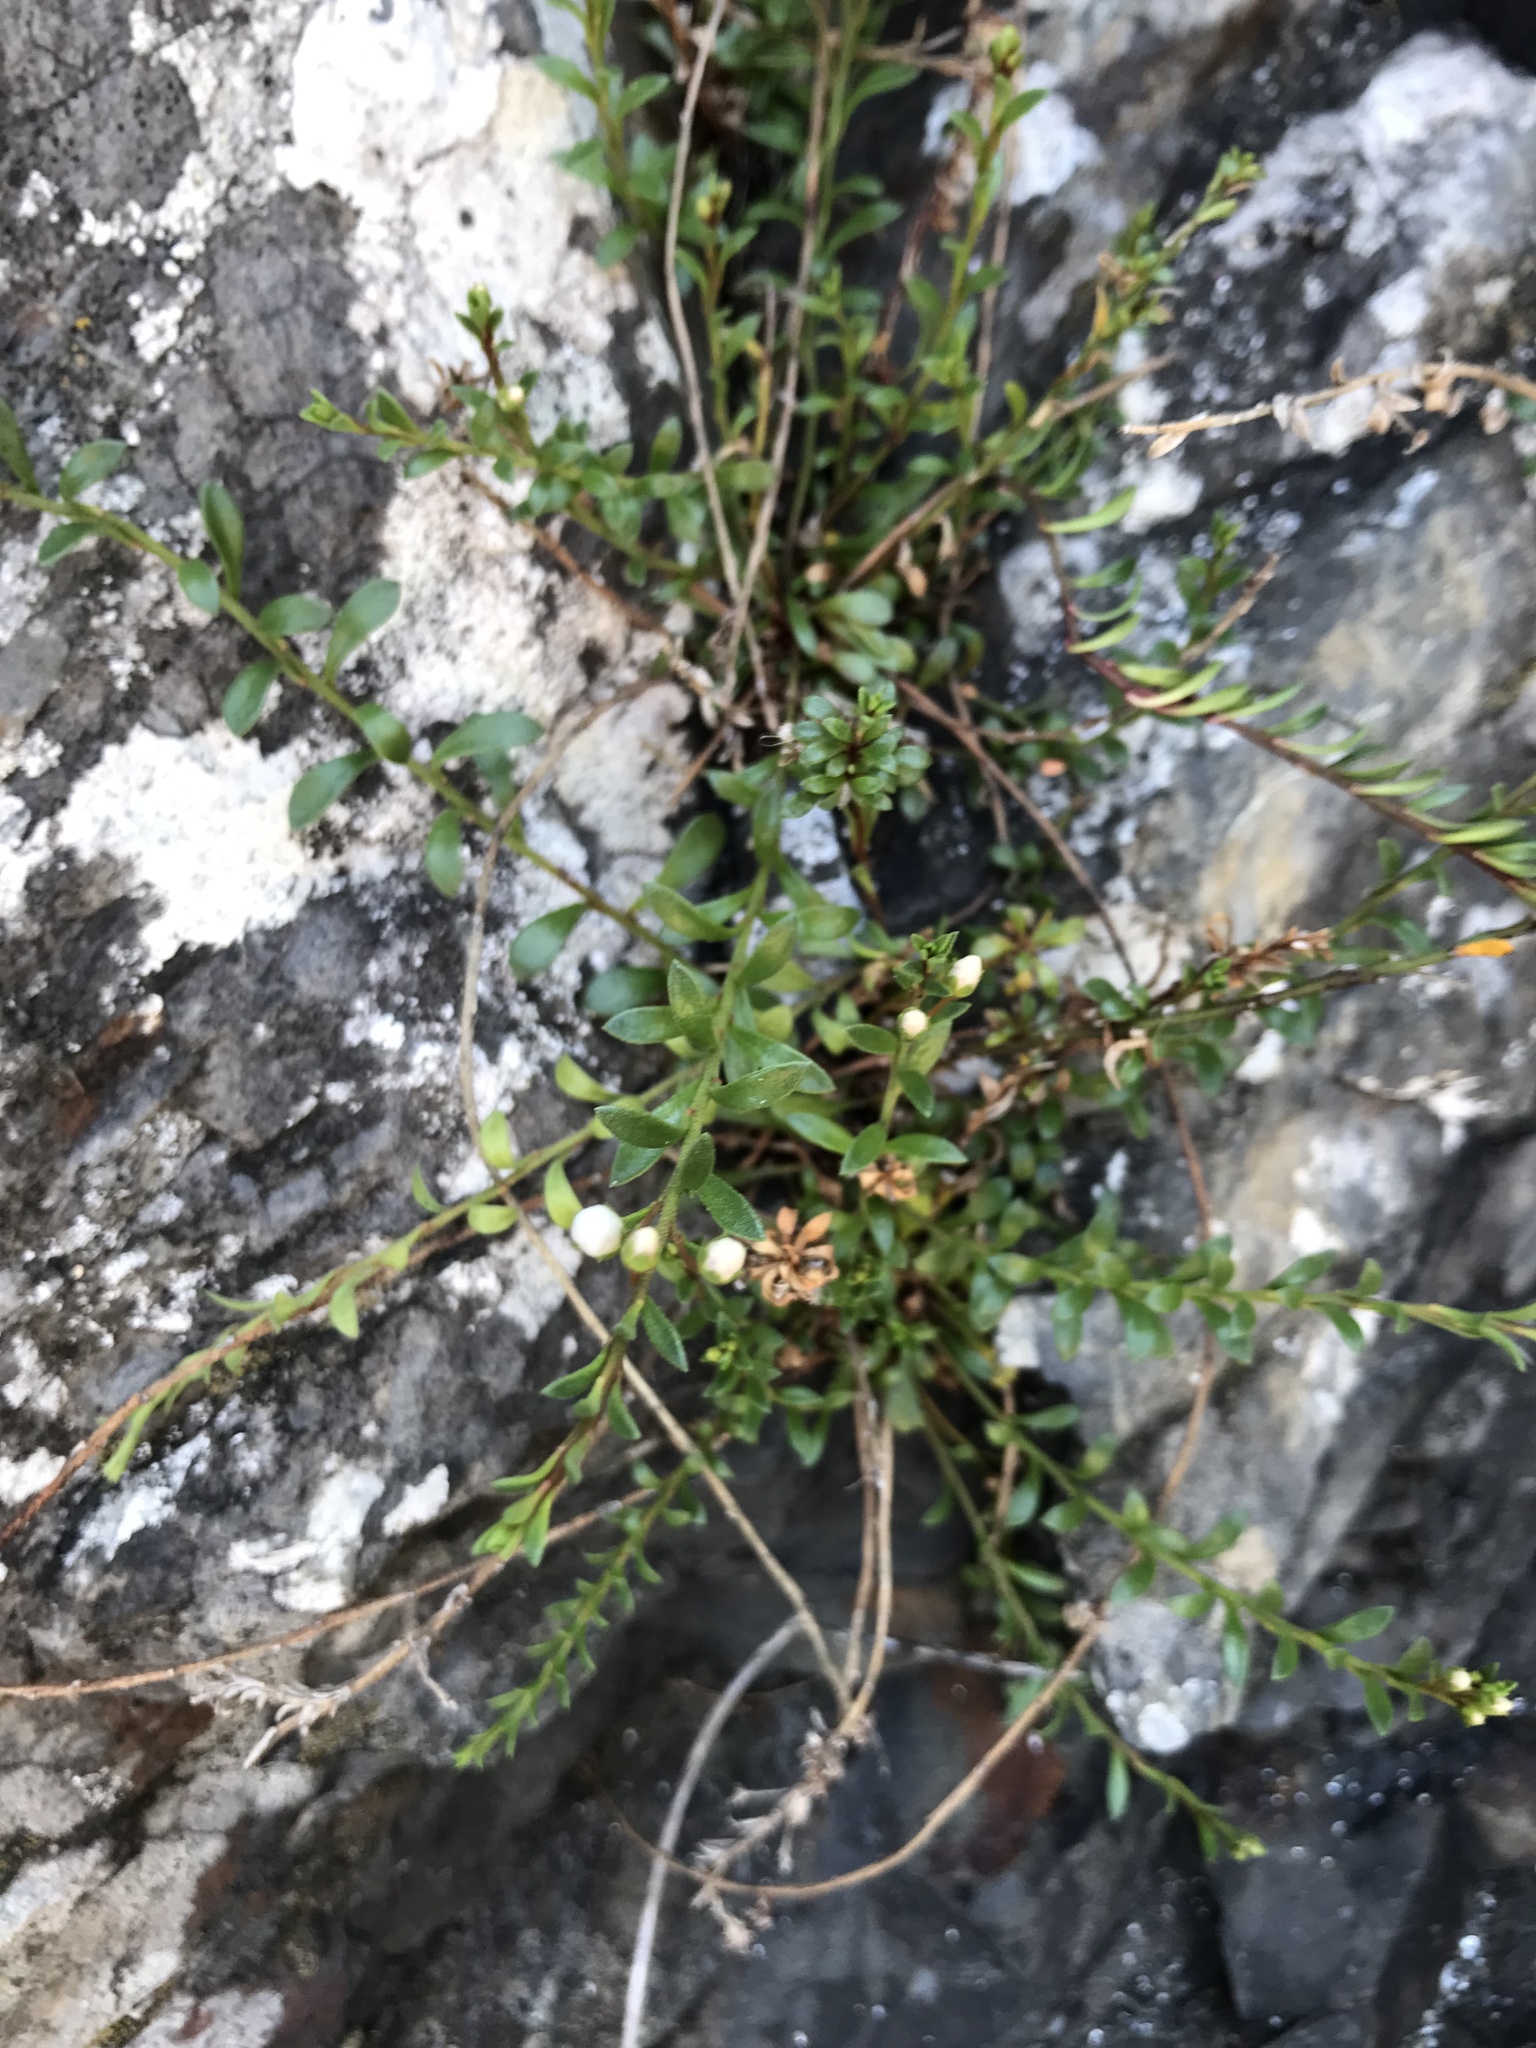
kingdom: Plantae
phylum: Tracheophyta
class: Magnoliopsida
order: Ericales
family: Primulaceae
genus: Samolus
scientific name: Samolus repens
